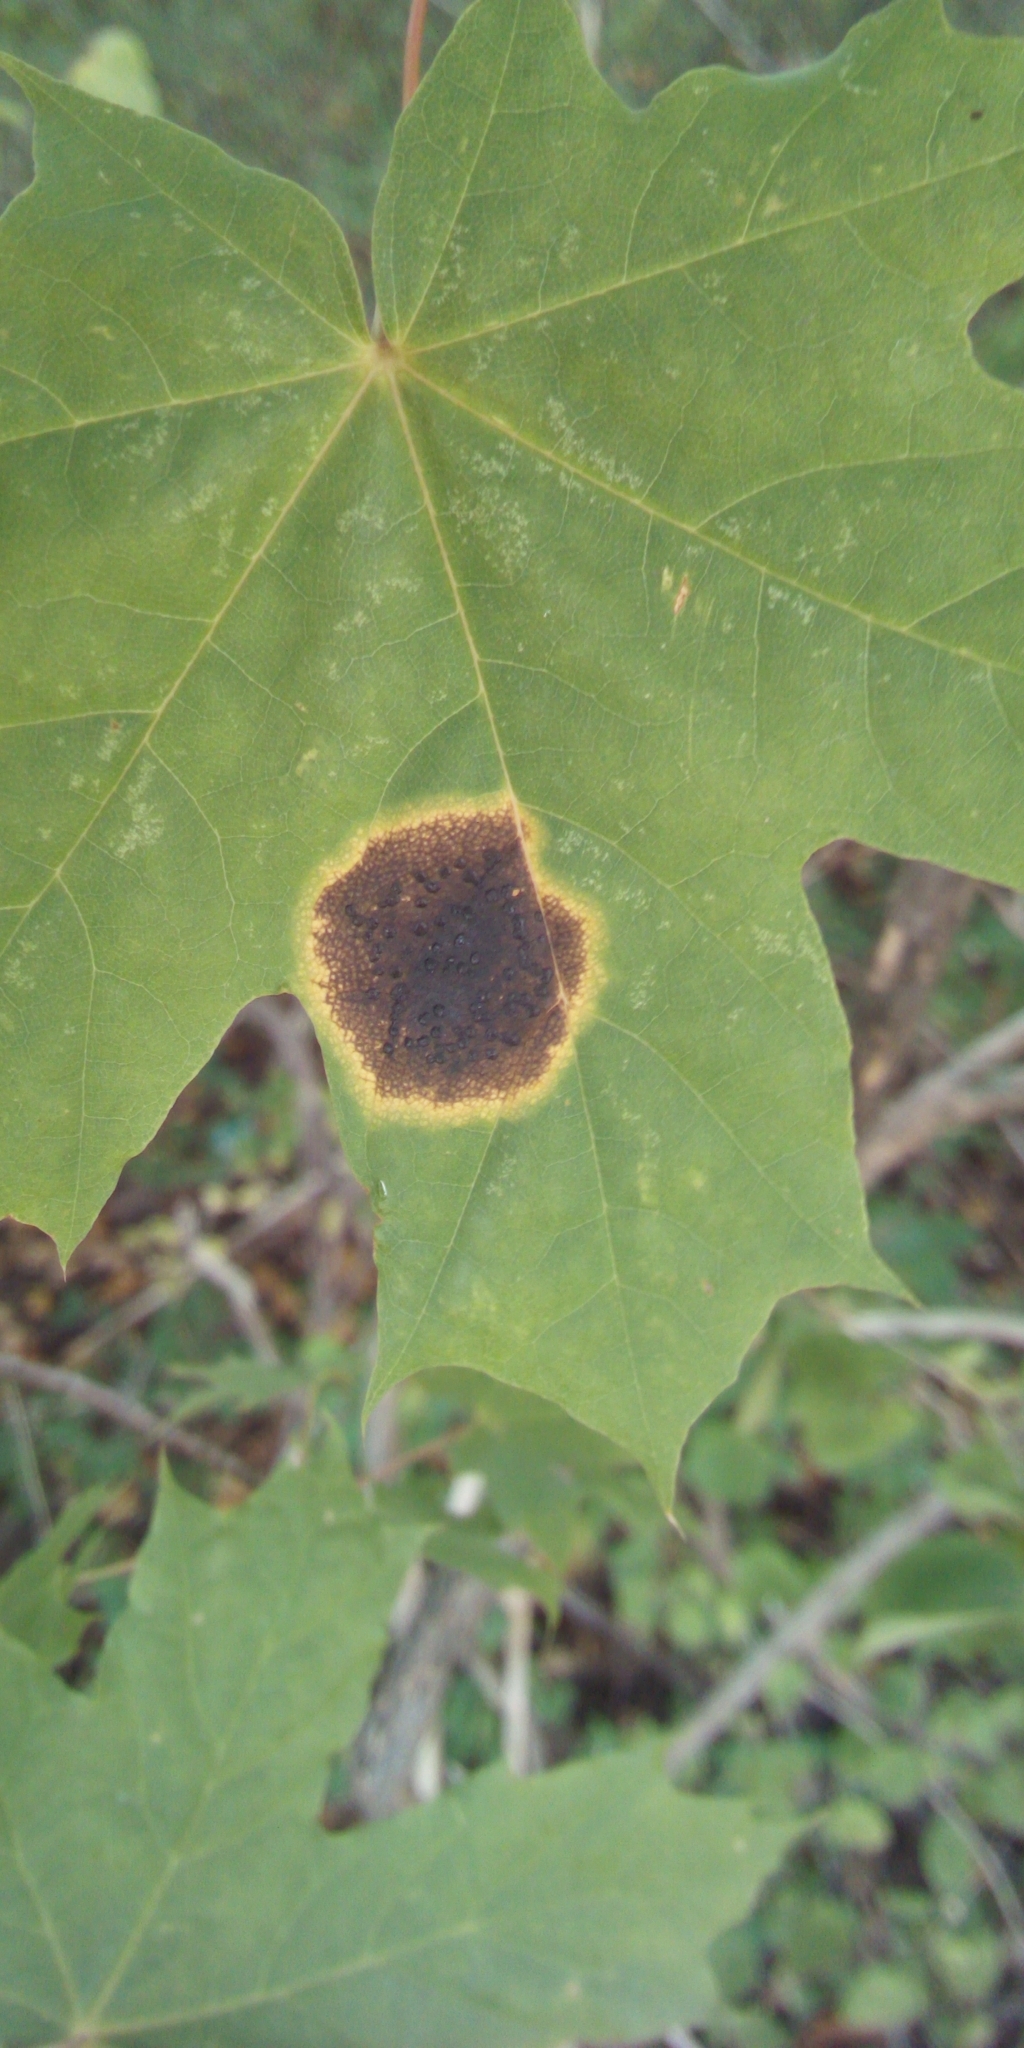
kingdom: Fungi
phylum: Ascomycota
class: Leotiomycetes
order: Rhytismatales
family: Rhytismataceae
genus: Rhytisma
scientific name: Rhytisma acerinum
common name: European tar spot
